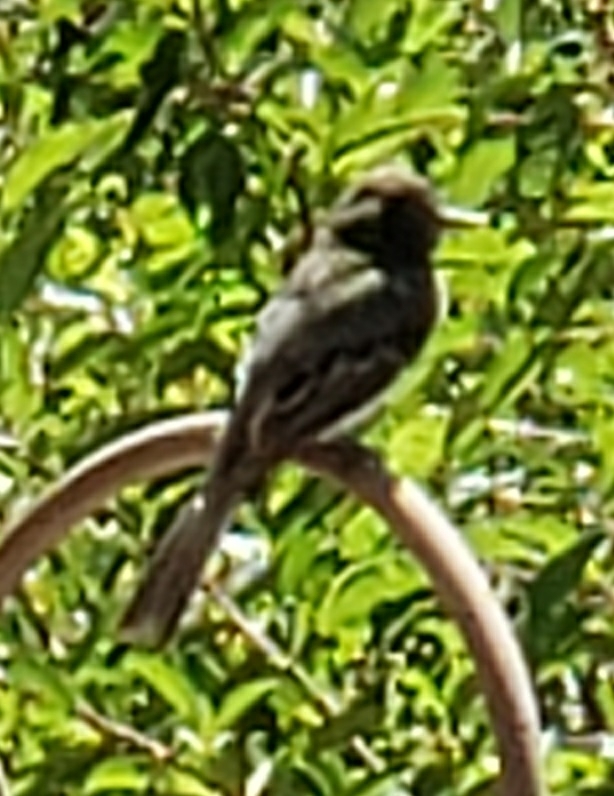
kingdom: Animalia
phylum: Chordata
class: Aves
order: Passeriformes
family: Tyrannidae
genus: Sayornis
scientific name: Sayornis nigricans
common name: Black phoebe
